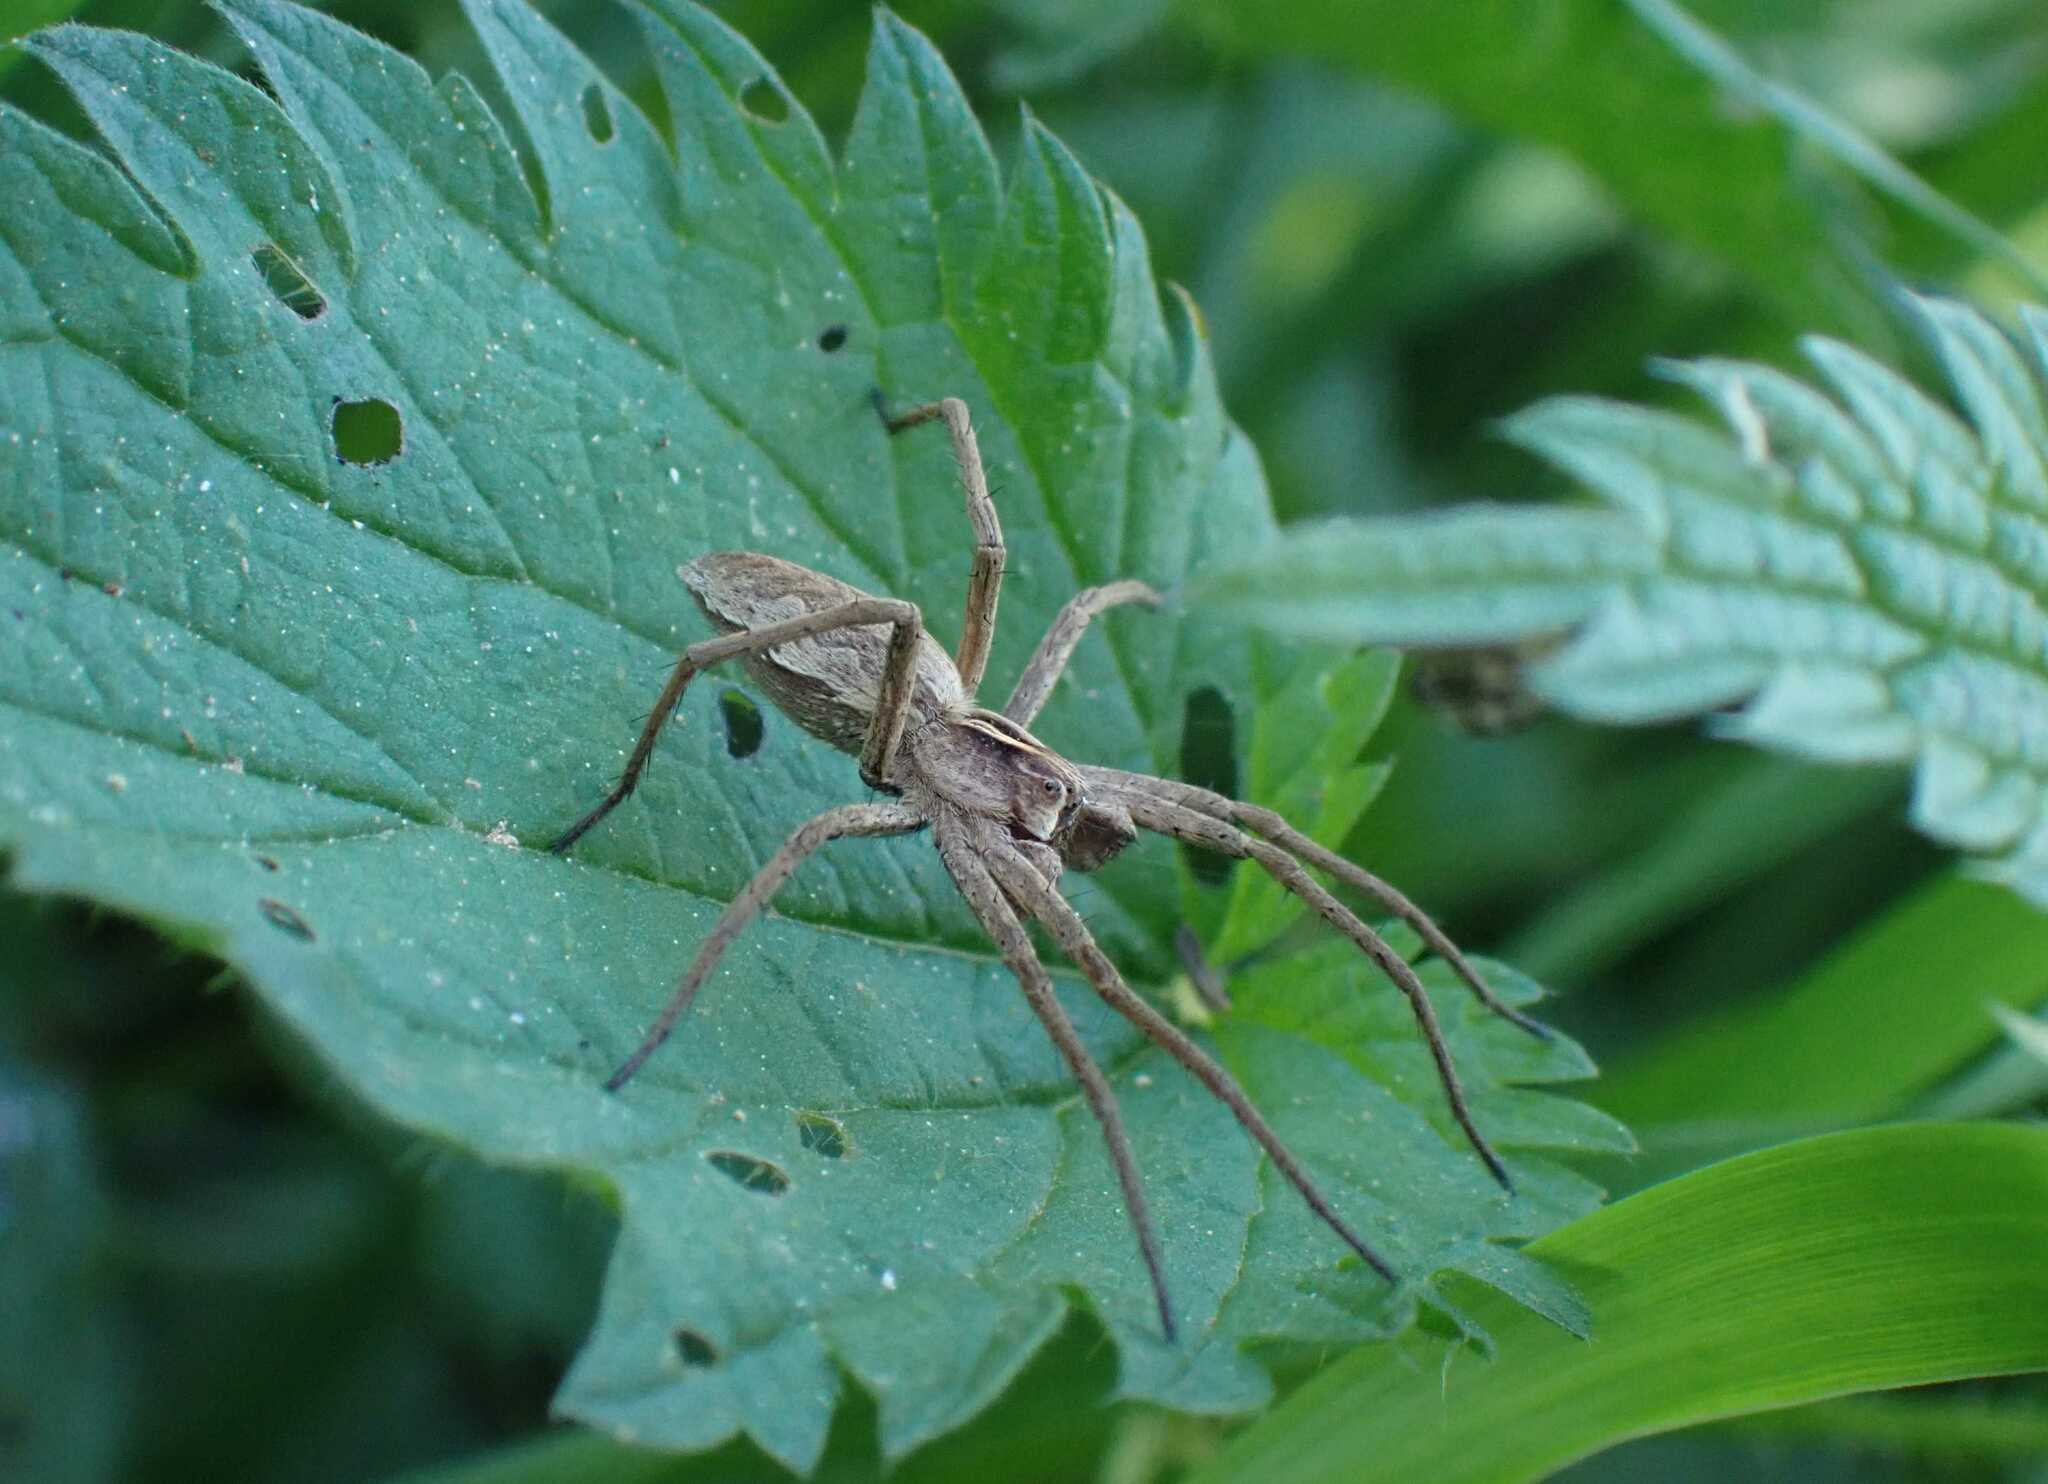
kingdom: Animalia
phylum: Arthropoda
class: Arachnida
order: Araneae
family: Pisauridae
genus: Pisaura
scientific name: Pisaura mirabilis
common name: Tent spider
